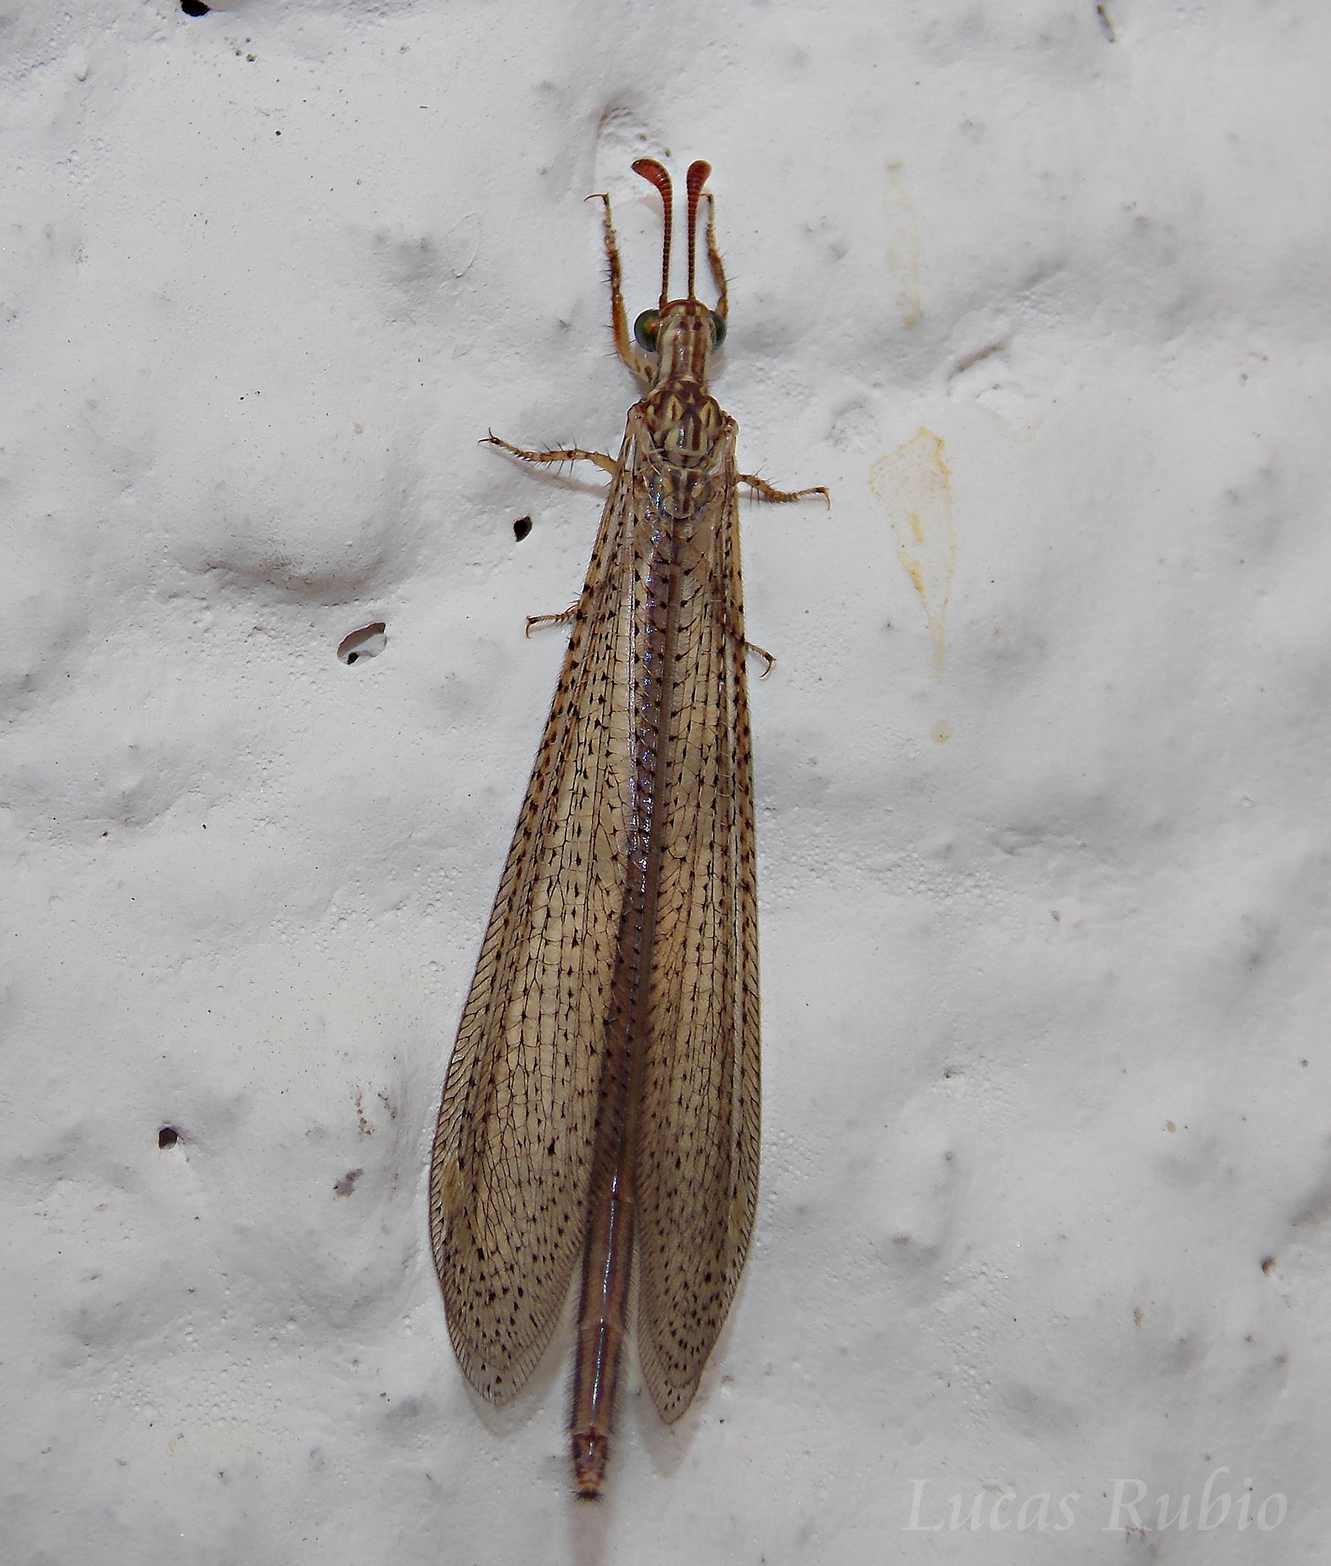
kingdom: Animalia
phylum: Arthropoda
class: Insecta
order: Neuroptera
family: Myrmeleontidae
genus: Argentoleon
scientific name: Argentoleon irrigatus
